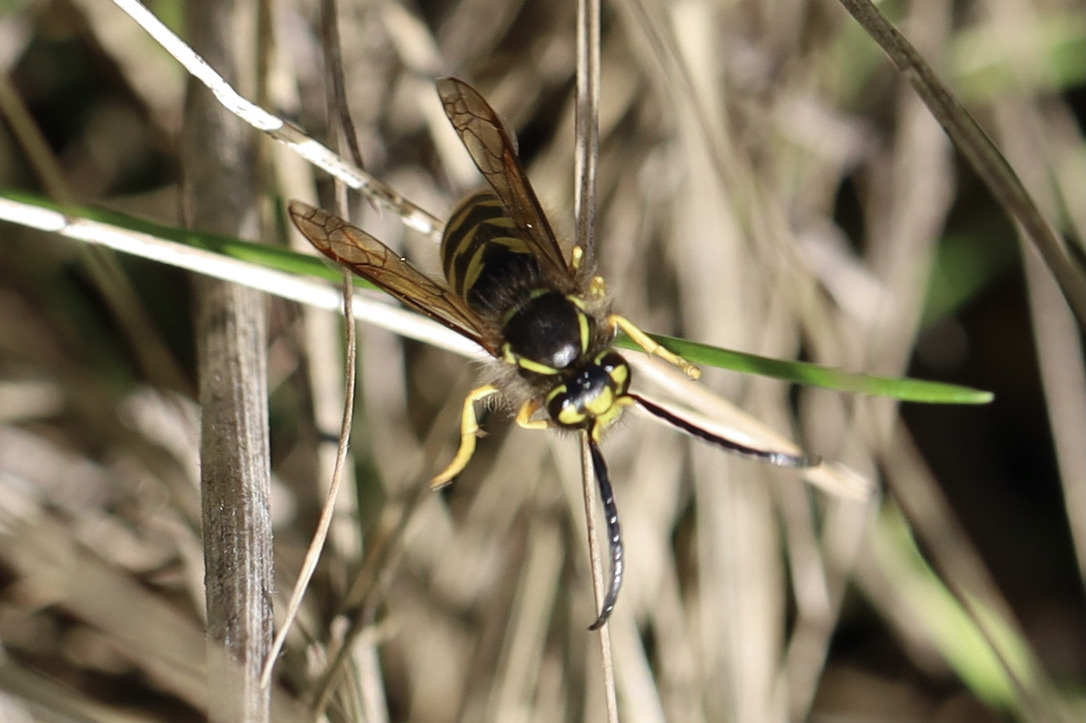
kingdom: Animalia
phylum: Arthropoda
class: Insecta
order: Hymenoptera
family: Vespidae
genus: Vespula
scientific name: Vespula pensylvanica
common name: Western yellowjacket
